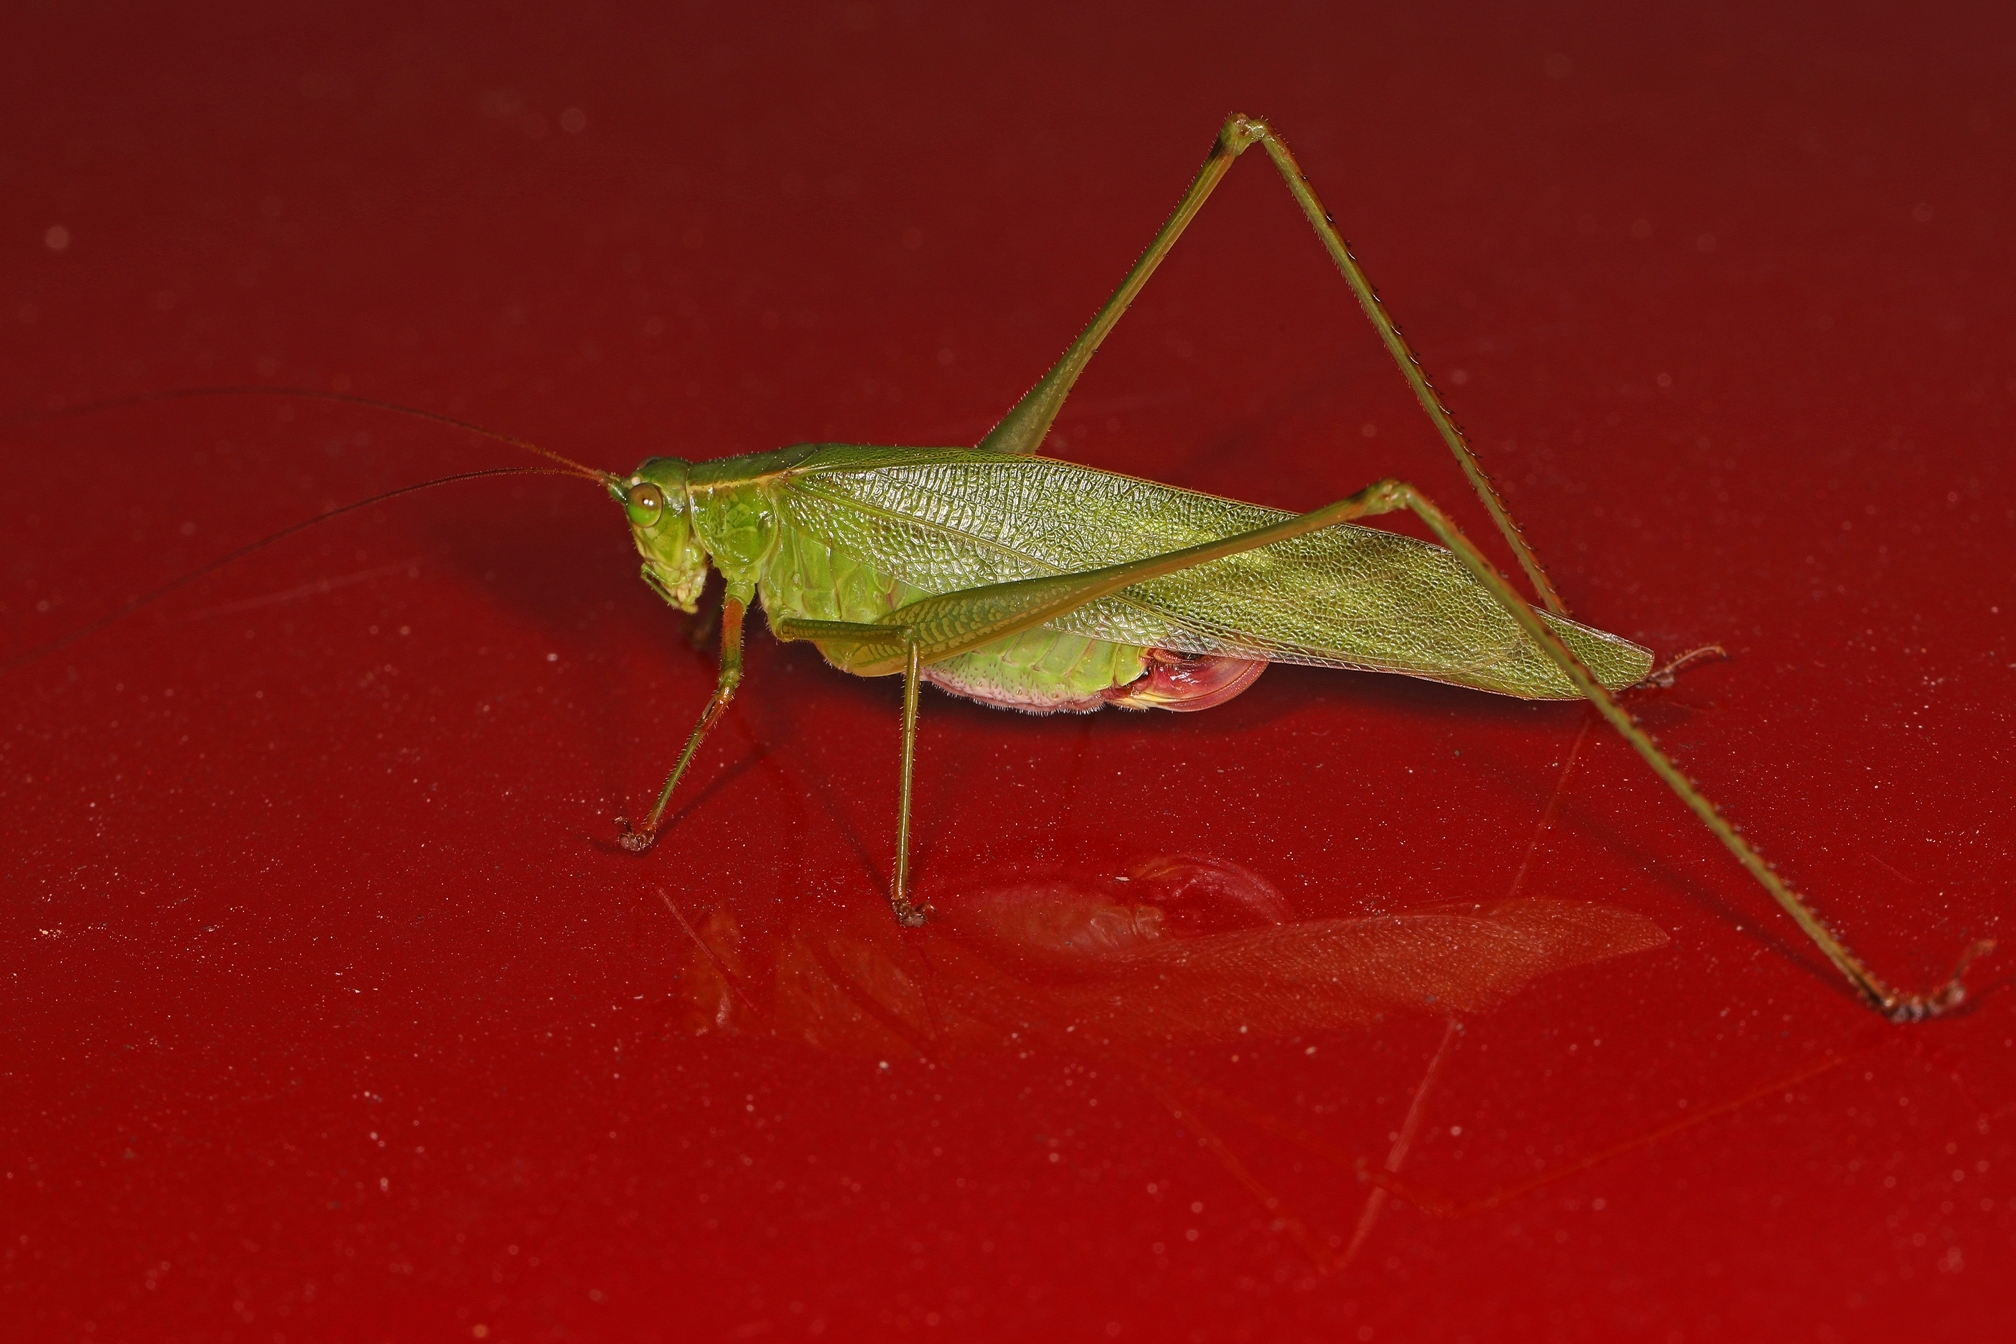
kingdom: Animalia
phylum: Arthropoda
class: Insecta
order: Orthoptera
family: Tettigoniidae
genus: Scudderia
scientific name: Scudderia furcata
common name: Fork-tailed bush katydid
